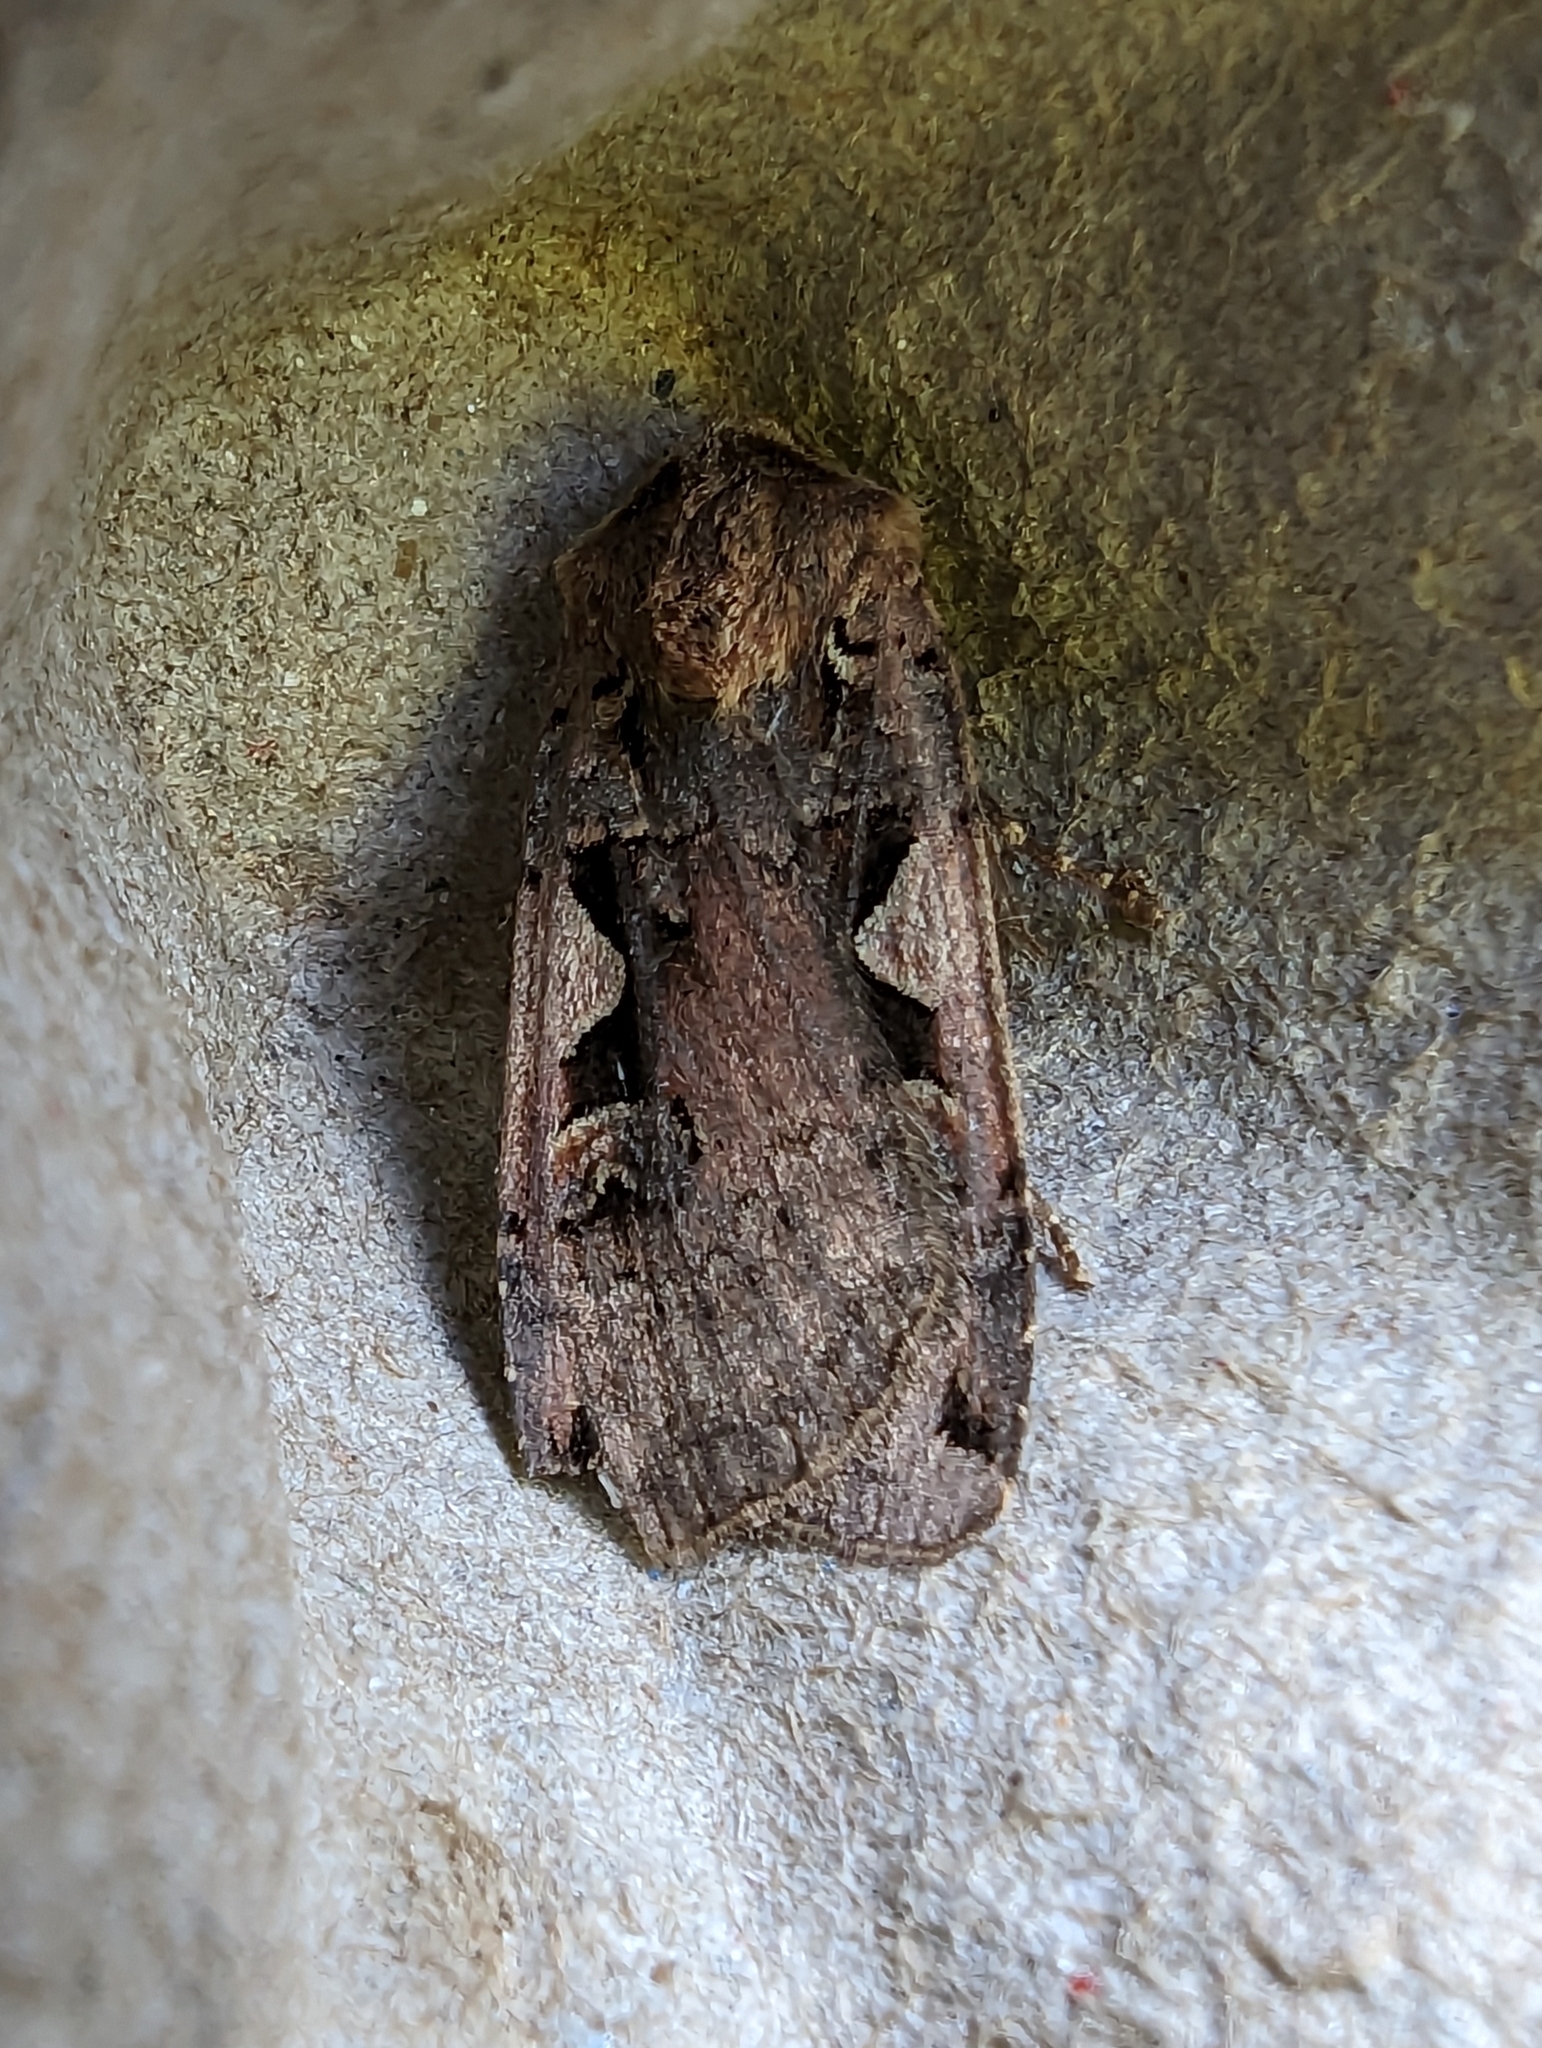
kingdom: Animalia
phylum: Arthropoda
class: Insecta
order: Lepidoptera
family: Noctuidae
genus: Xestia
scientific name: Xestia c-nigrum
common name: Setaceous hebrew character
